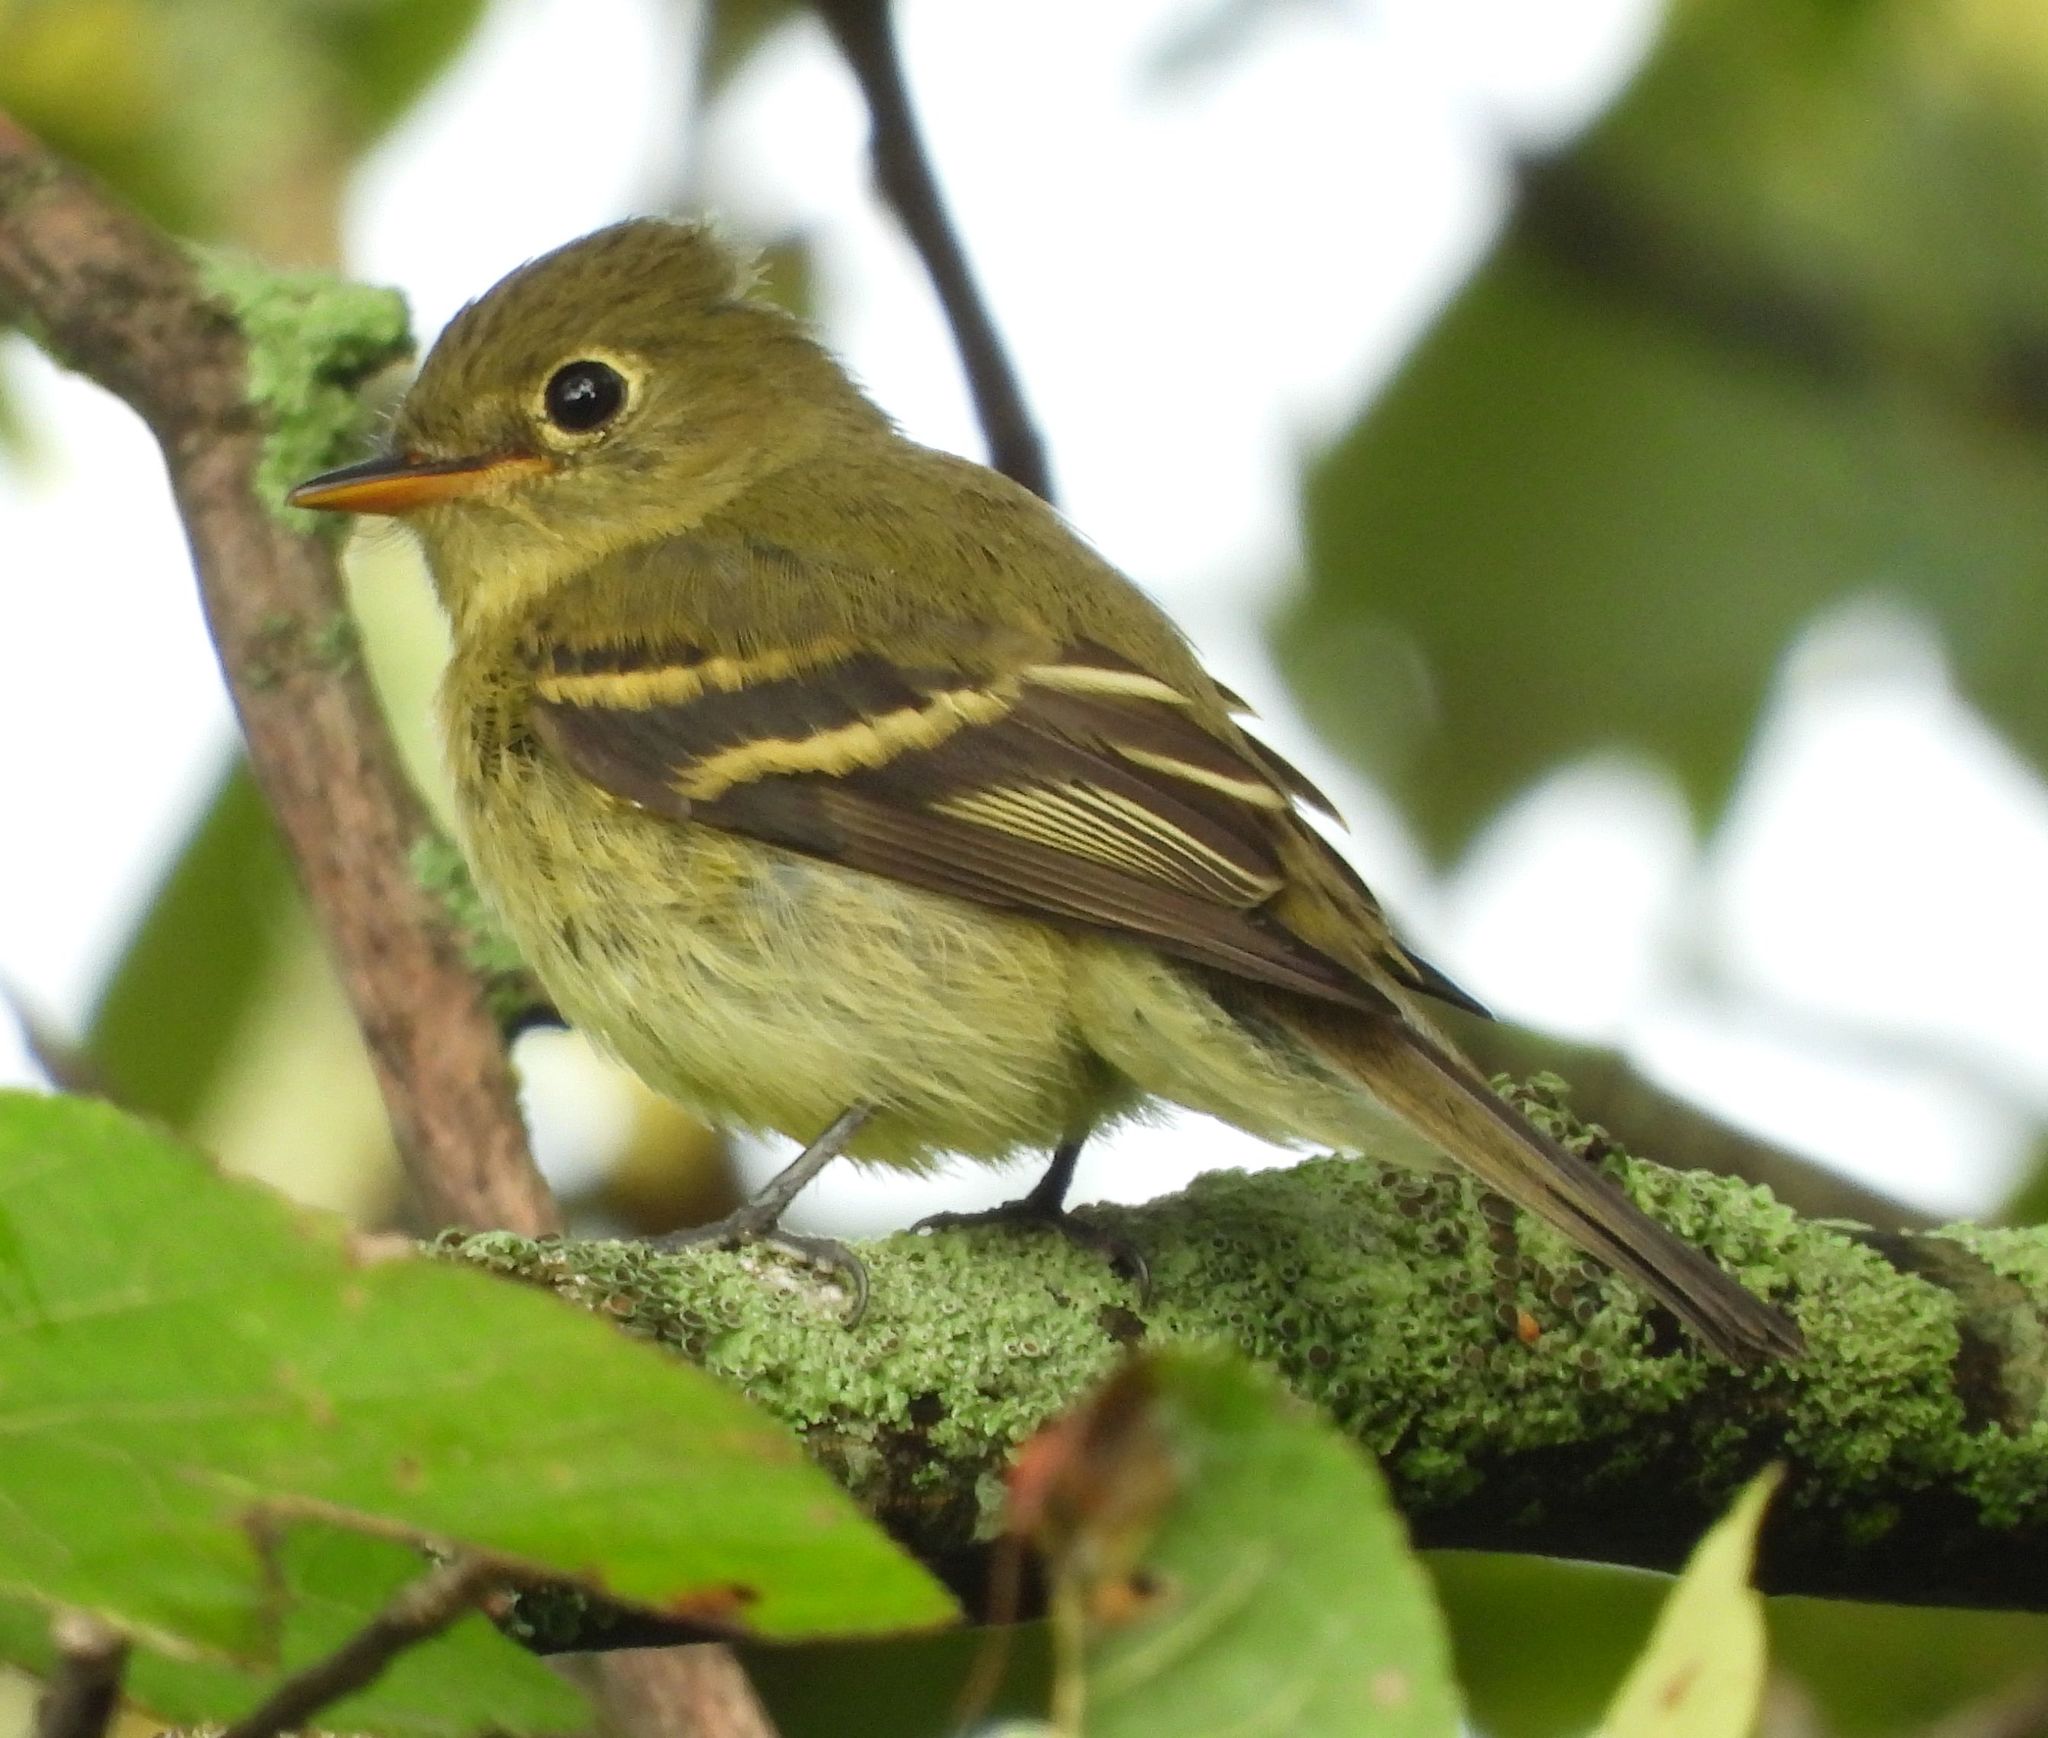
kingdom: Animalia
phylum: Chordata
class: Aves
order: Passeriformes
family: Tyrannidae
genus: Empidonax
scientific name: Empidonax flaviventris
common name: Yellow-bellied flycatcher
